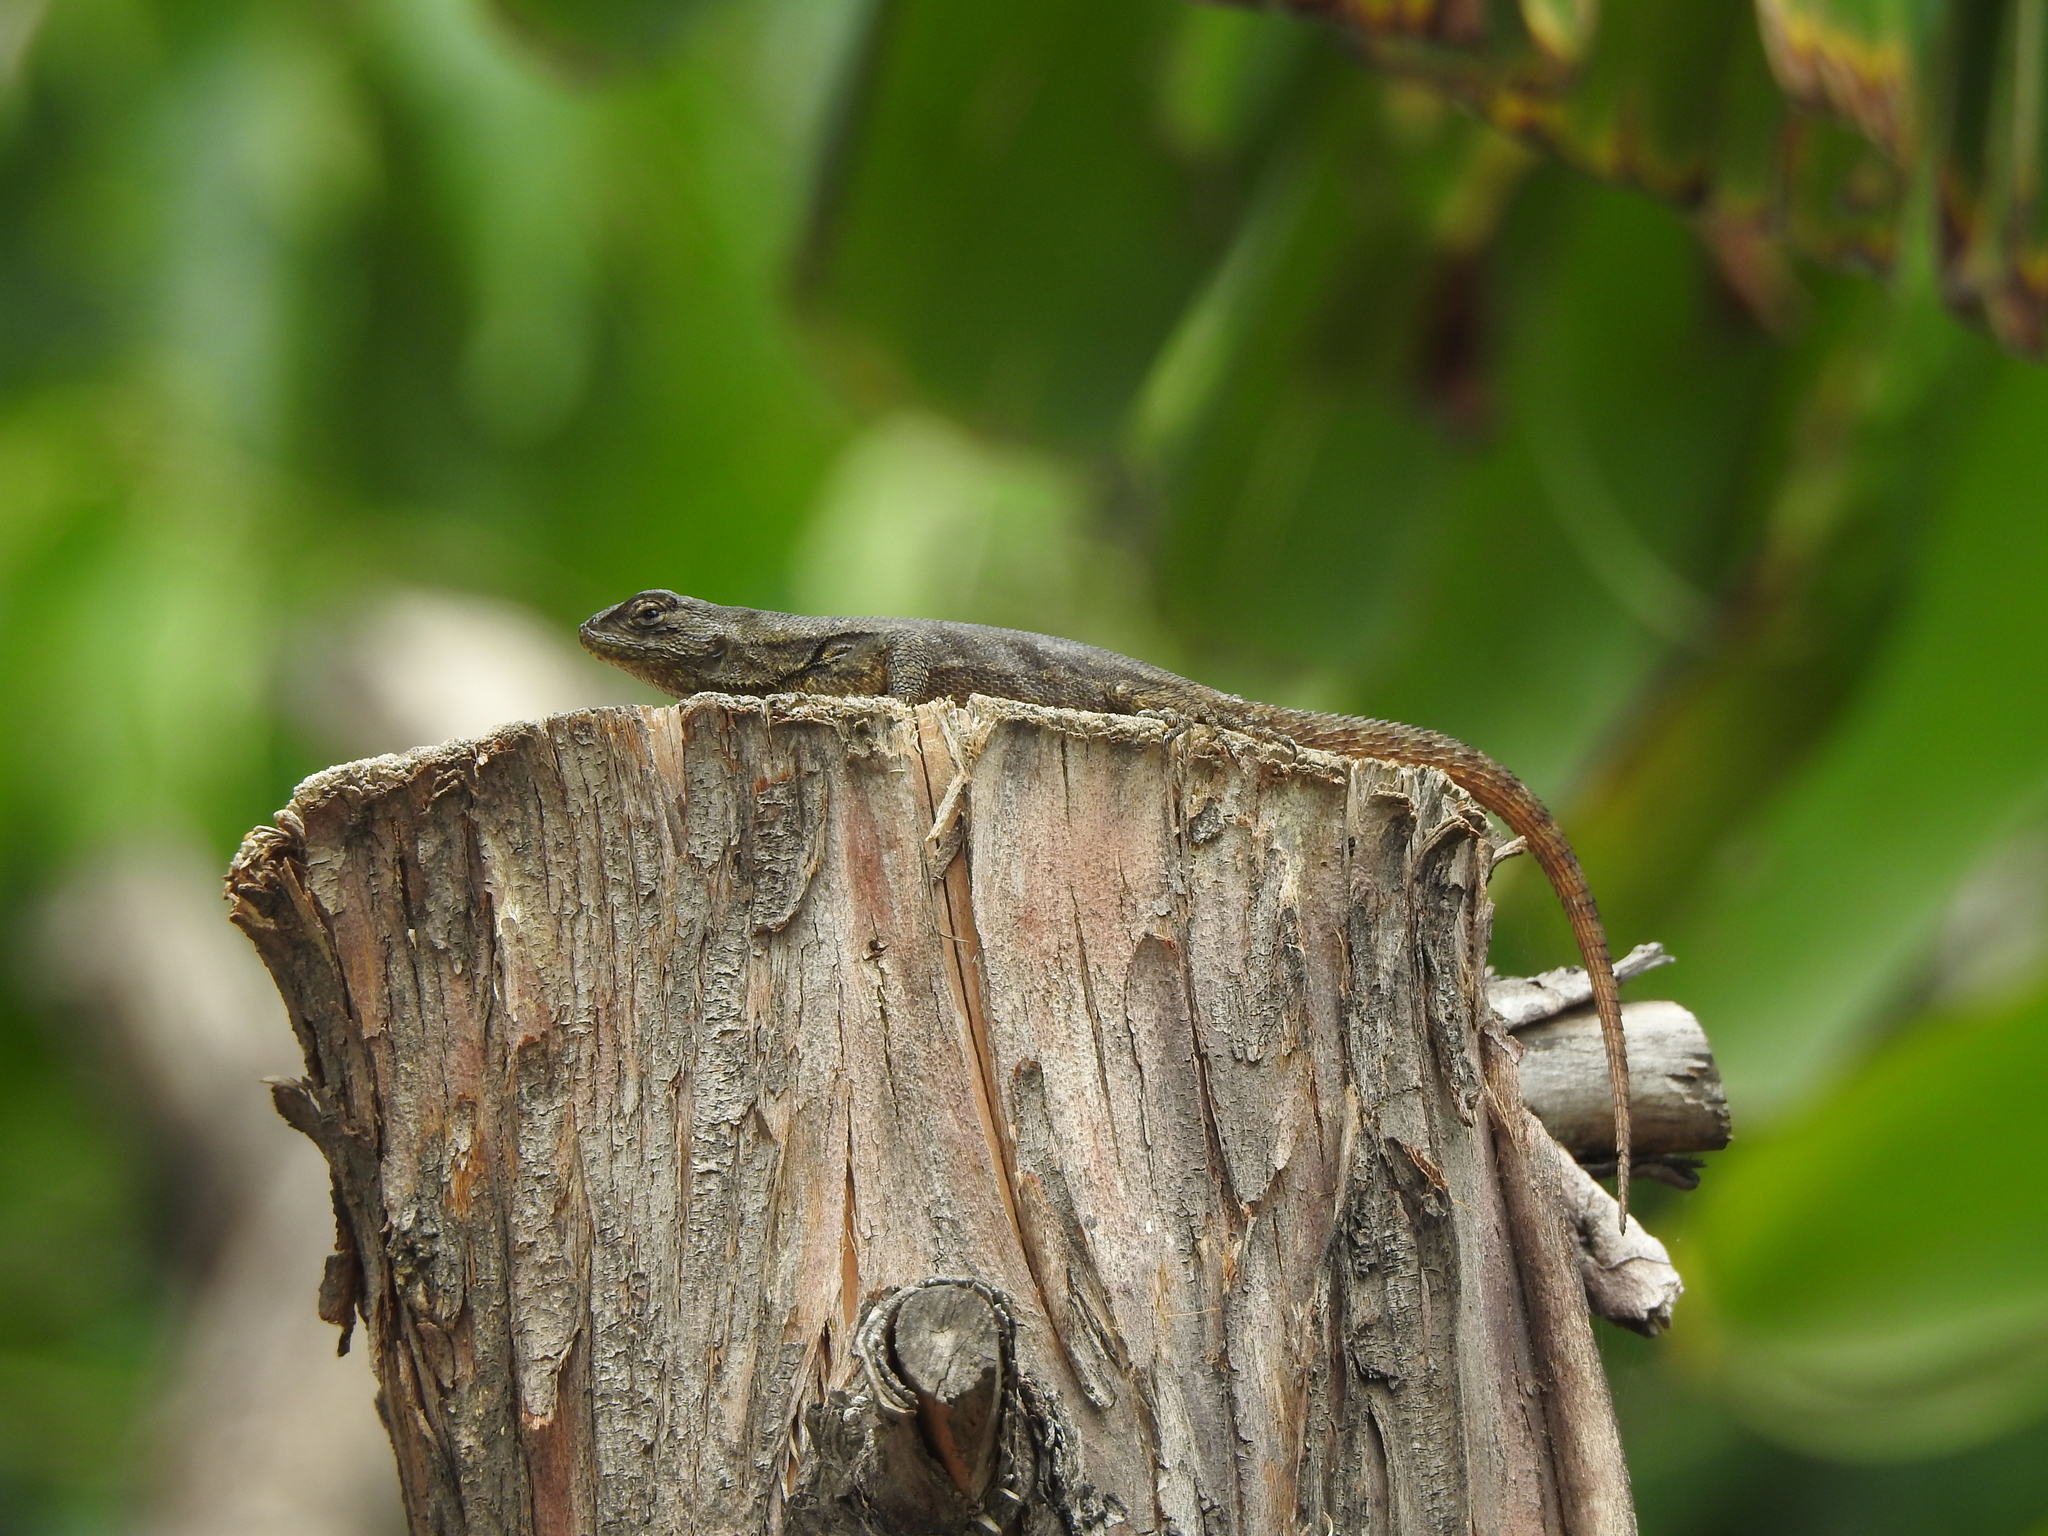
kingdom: Animalia
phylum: Chordata
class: Squamata
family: Phrynosomatidae
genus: Sceloporus
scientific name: Sceloporus grammicus
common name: Mesquite lizard
